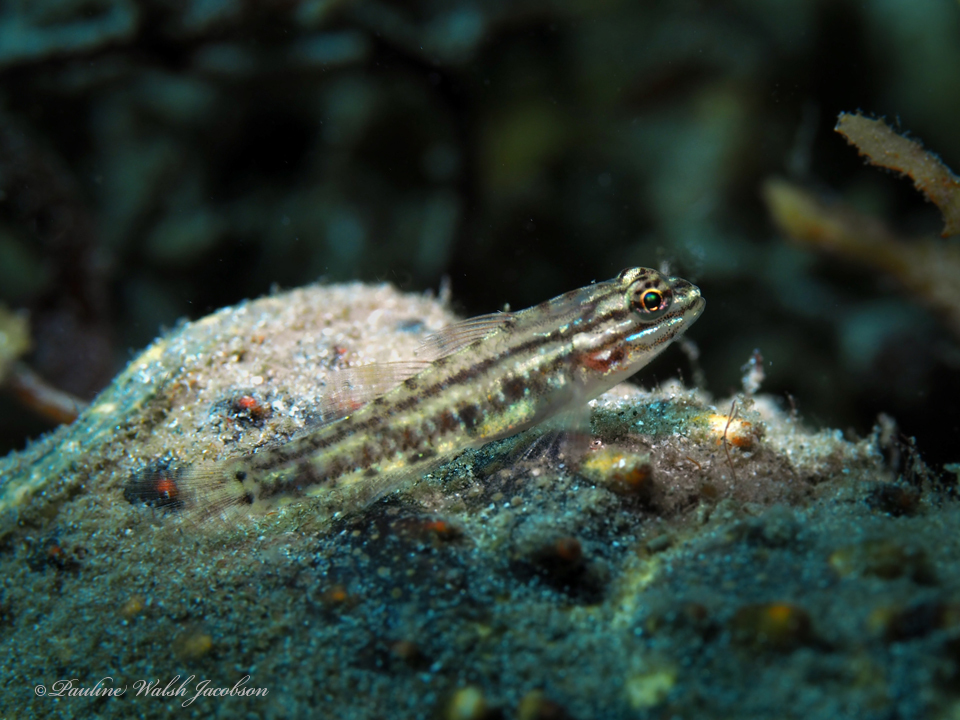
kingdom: Animalia
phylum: Chordata
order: Perciformes
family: Gobiidae
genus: Coryphopterus
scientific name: Coryphopterus dicrus
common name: Colon goby
